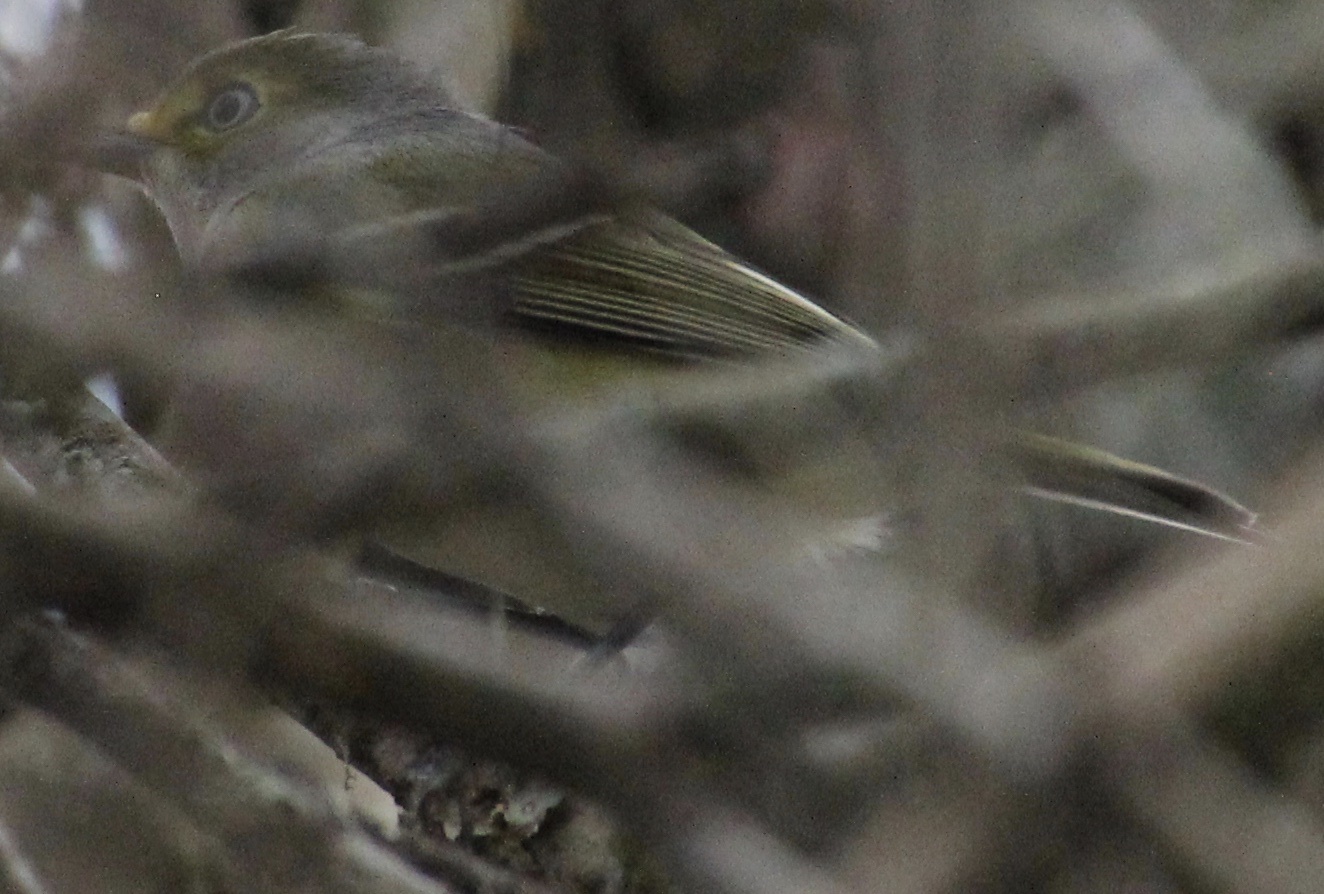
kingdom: Animalia
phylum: Chordata
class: Aves
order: Passeriformes
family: Vireonidae
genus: Vireo
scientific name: Vireo griseus
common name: White-eyed vireo
